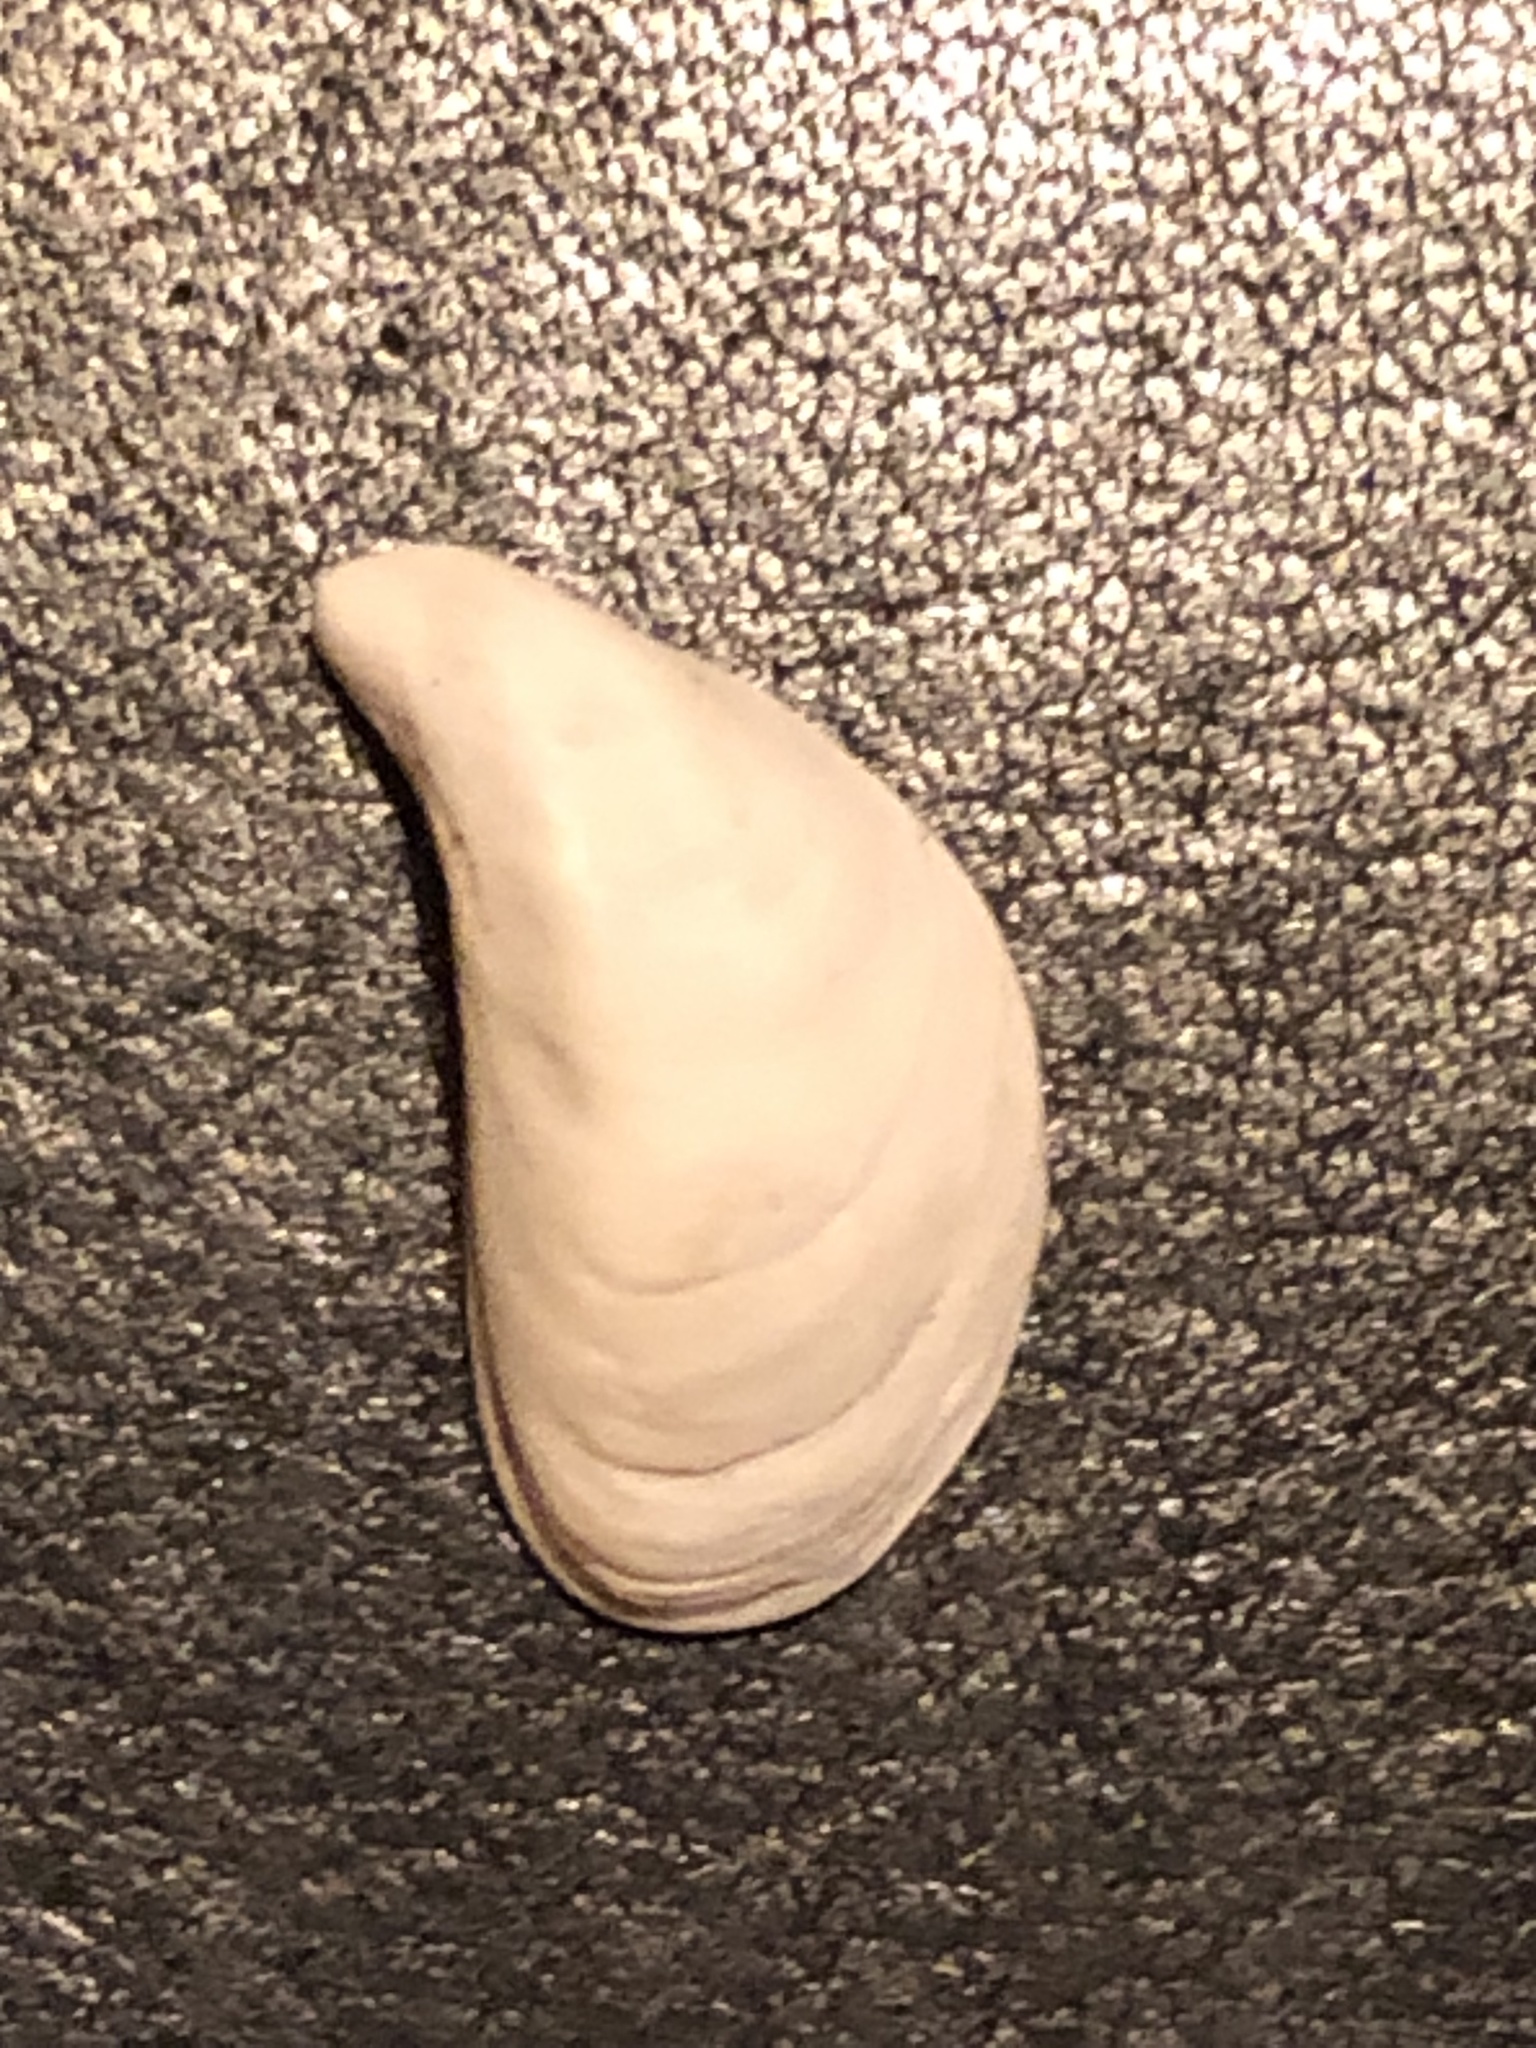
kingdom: Animalia
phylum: Mollusca
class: Bivalvia
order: Myida
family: Dreissenidae
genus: Dreissena
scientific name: Dreissena bugensis
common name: Quagga mussel
